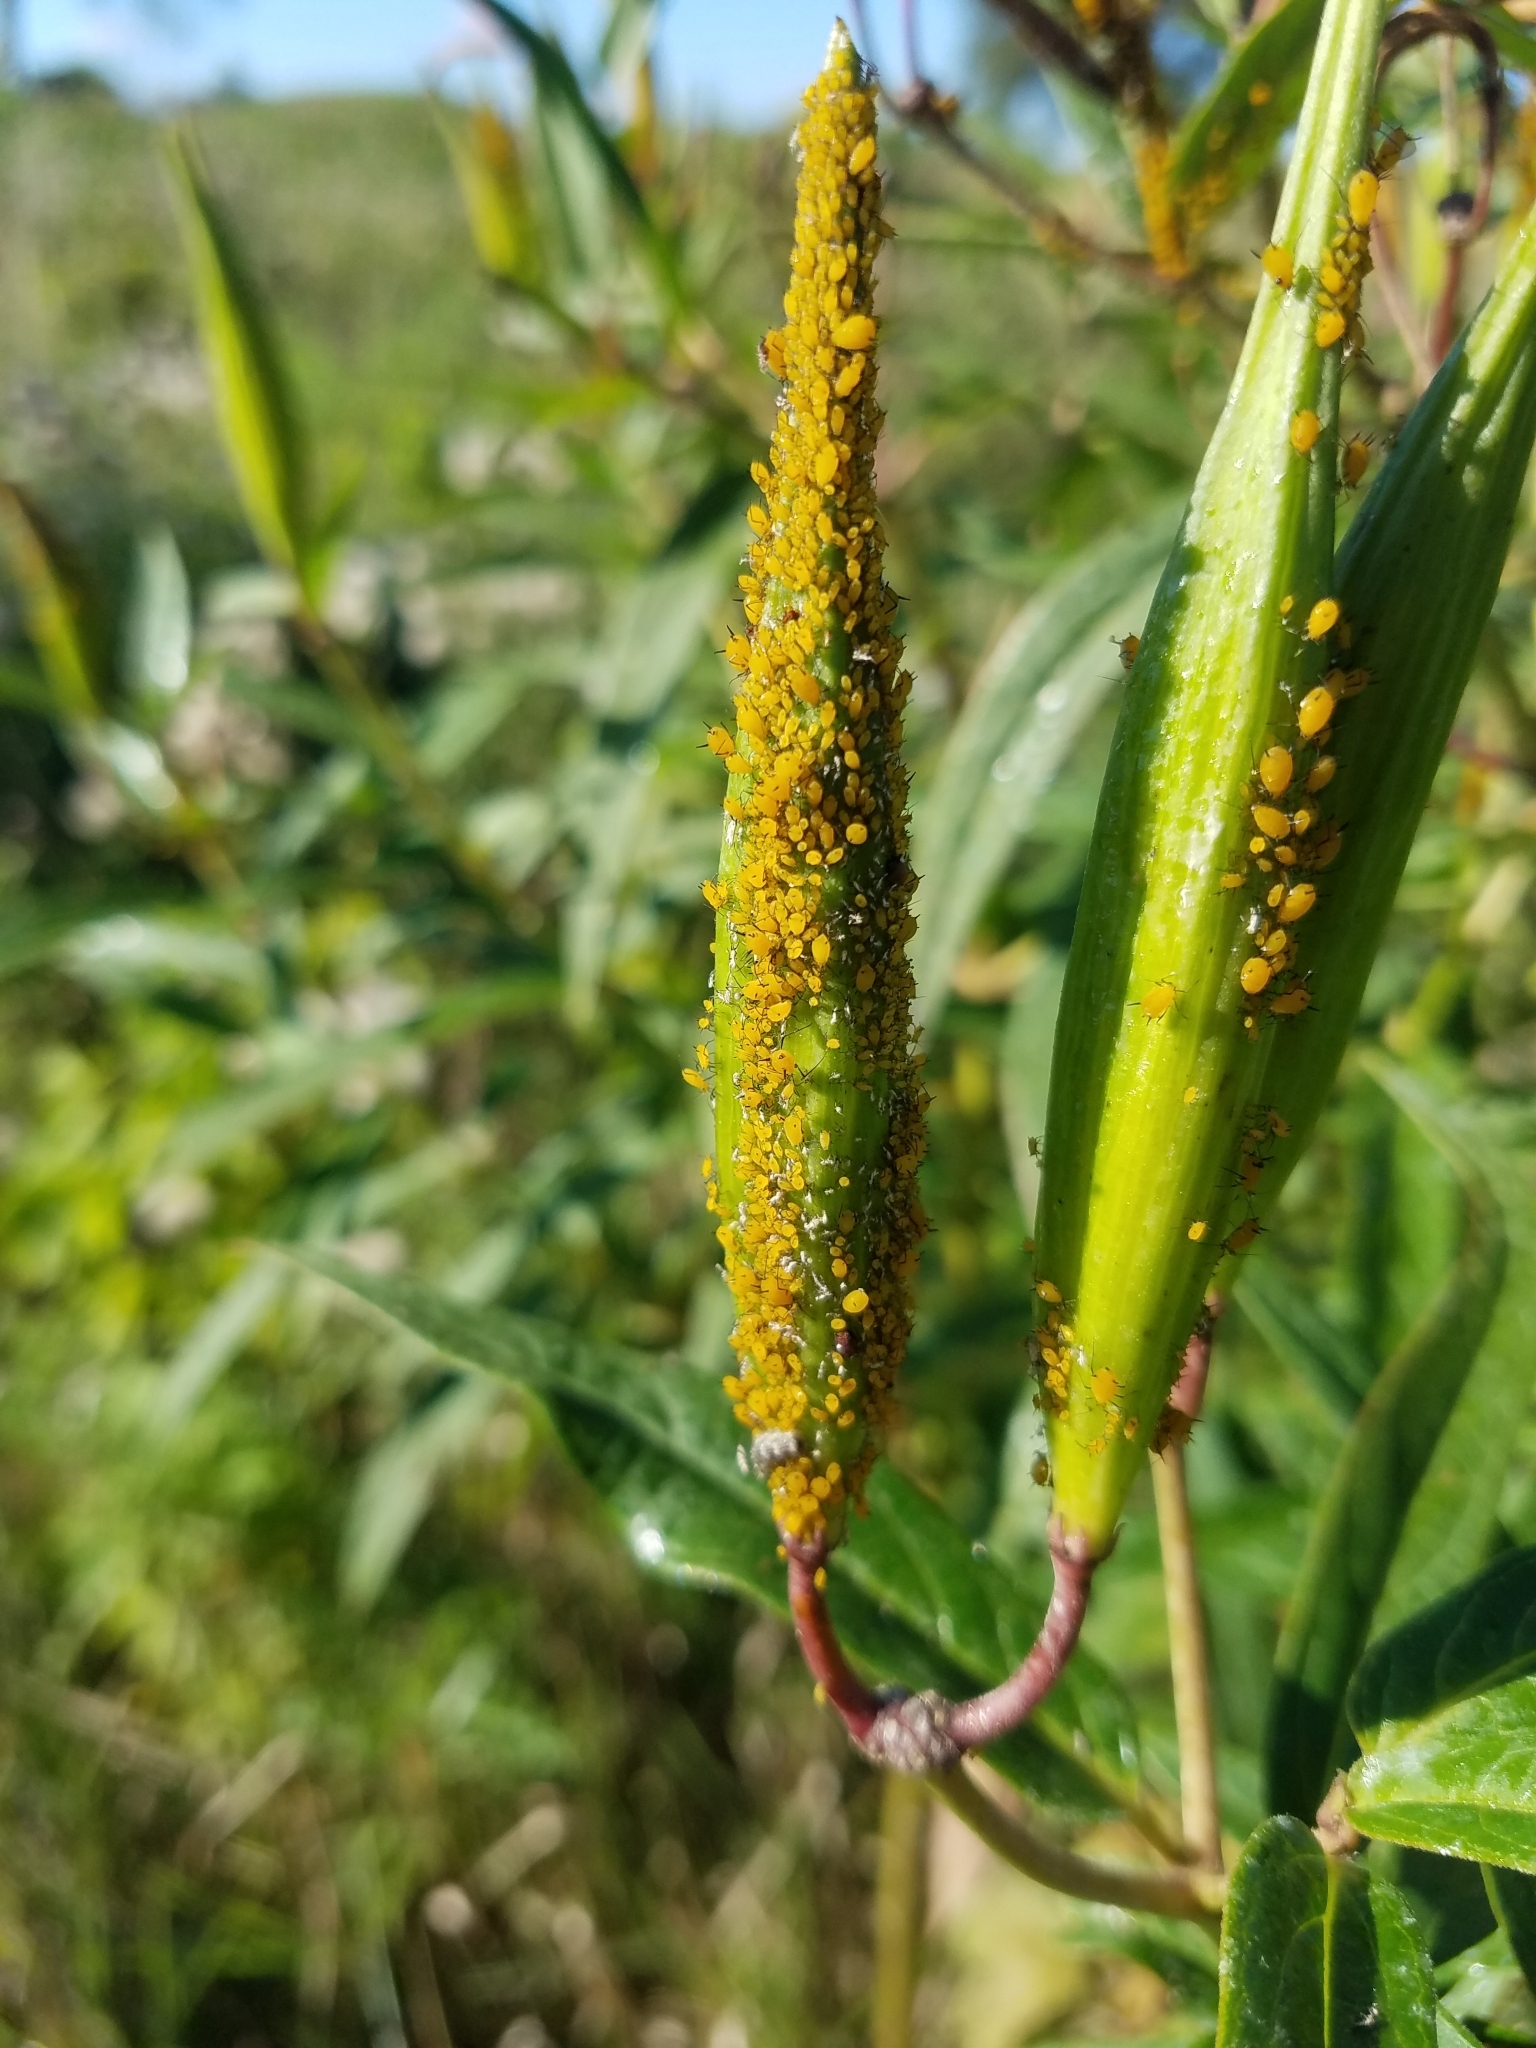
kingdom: Animalia
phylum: Arthropoda
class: Insecta
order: Hemiptera
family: Aphididae
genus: Aphis
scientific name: Aphis nerii
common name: Oleander aphid
